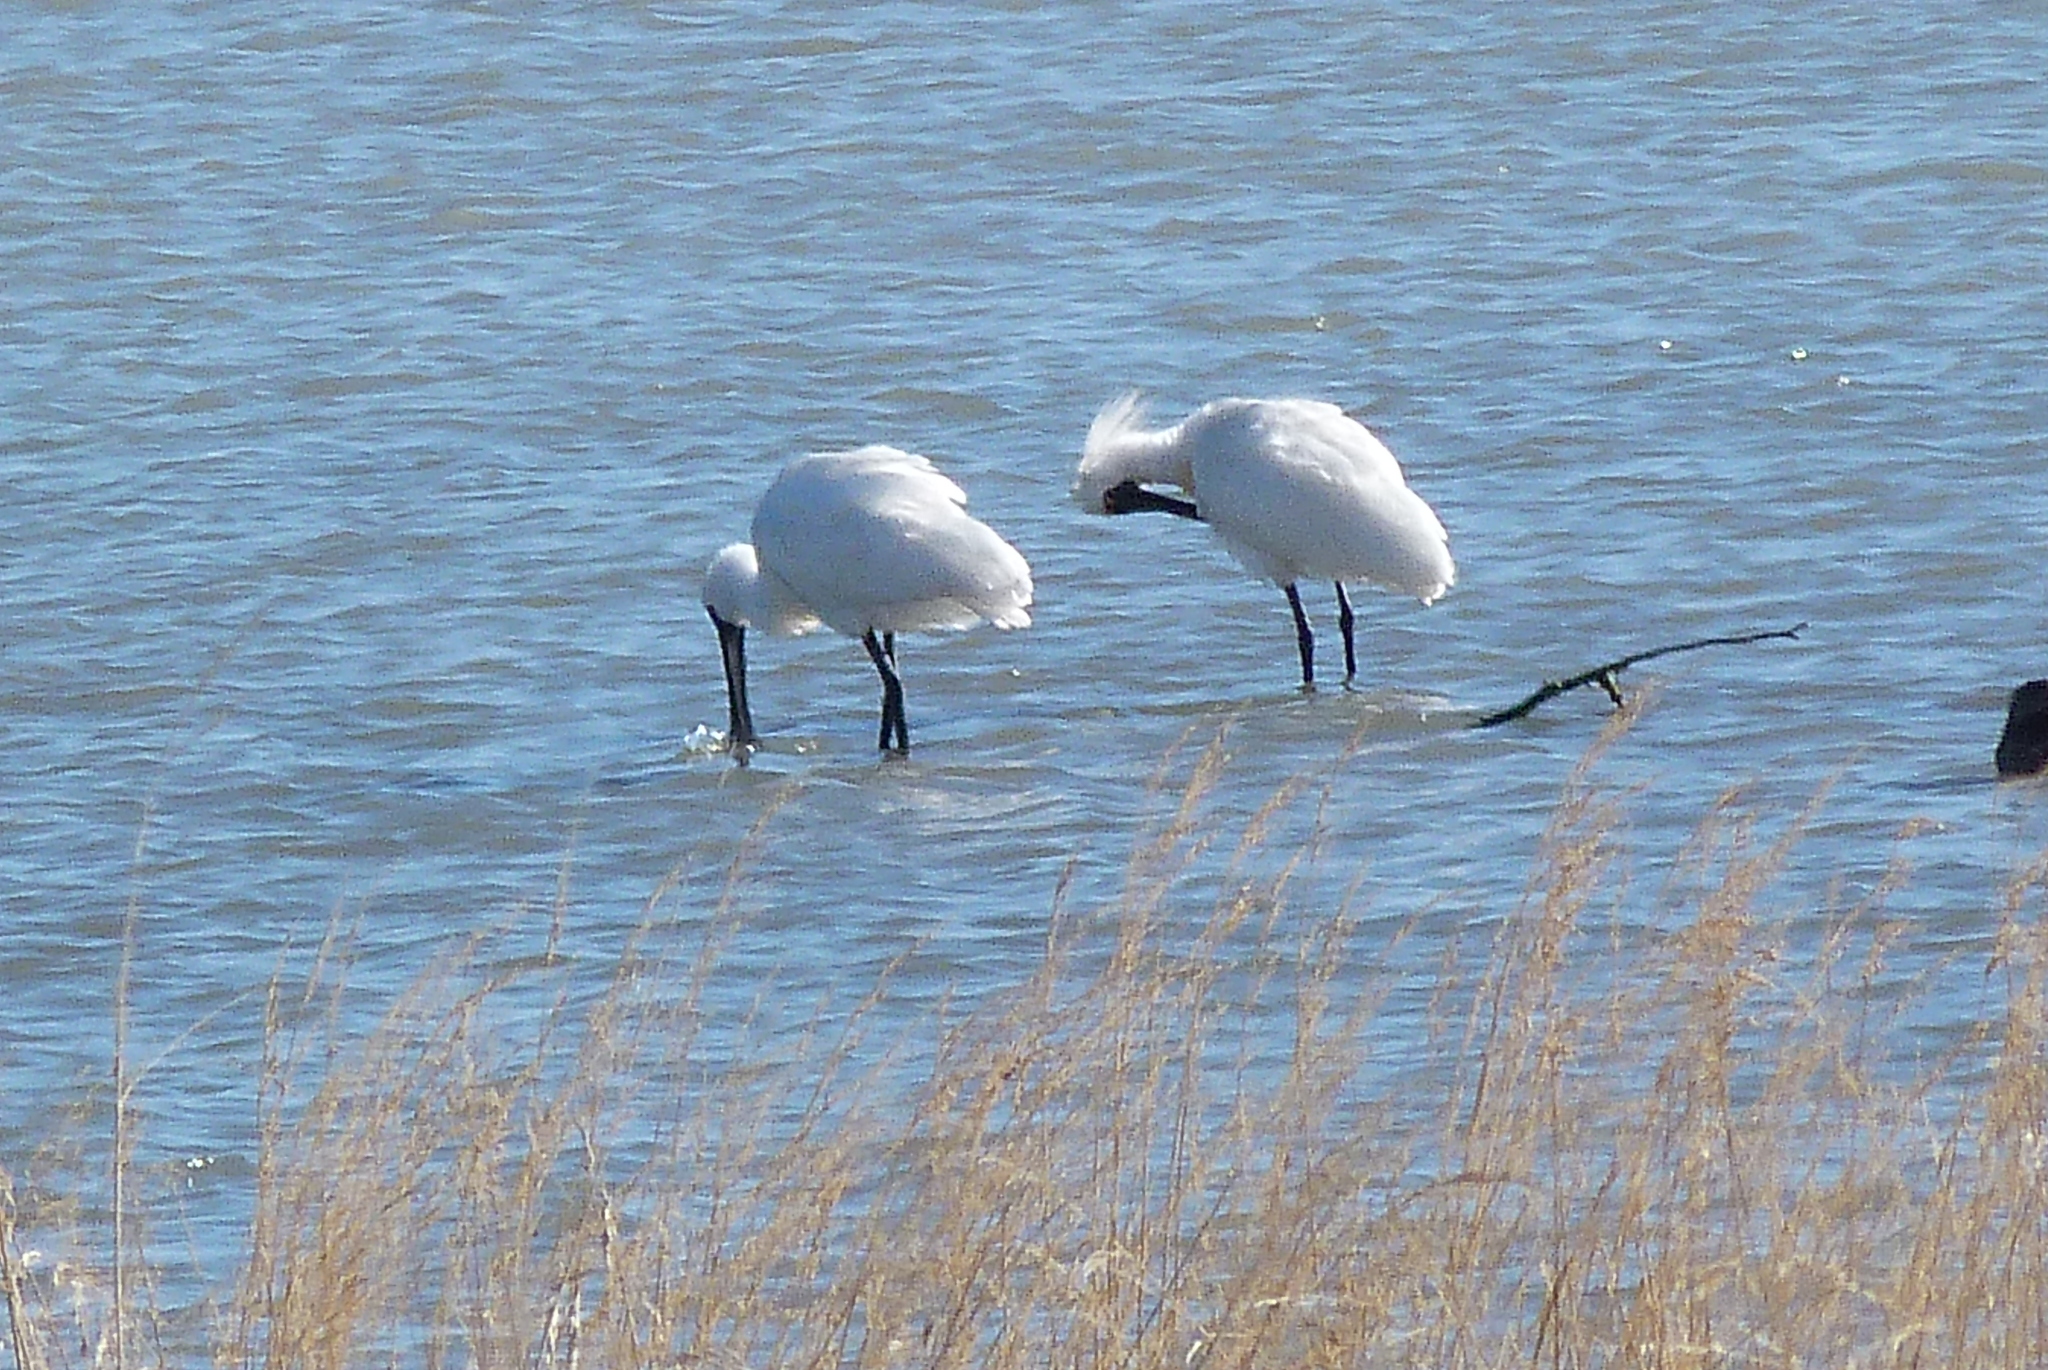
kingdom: Animalia
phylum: Chordata
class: Aves
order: Pelecaniformes
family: Threskiornithidae
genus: Platalea
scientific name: Platalea regia
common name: Royal spoonbill
